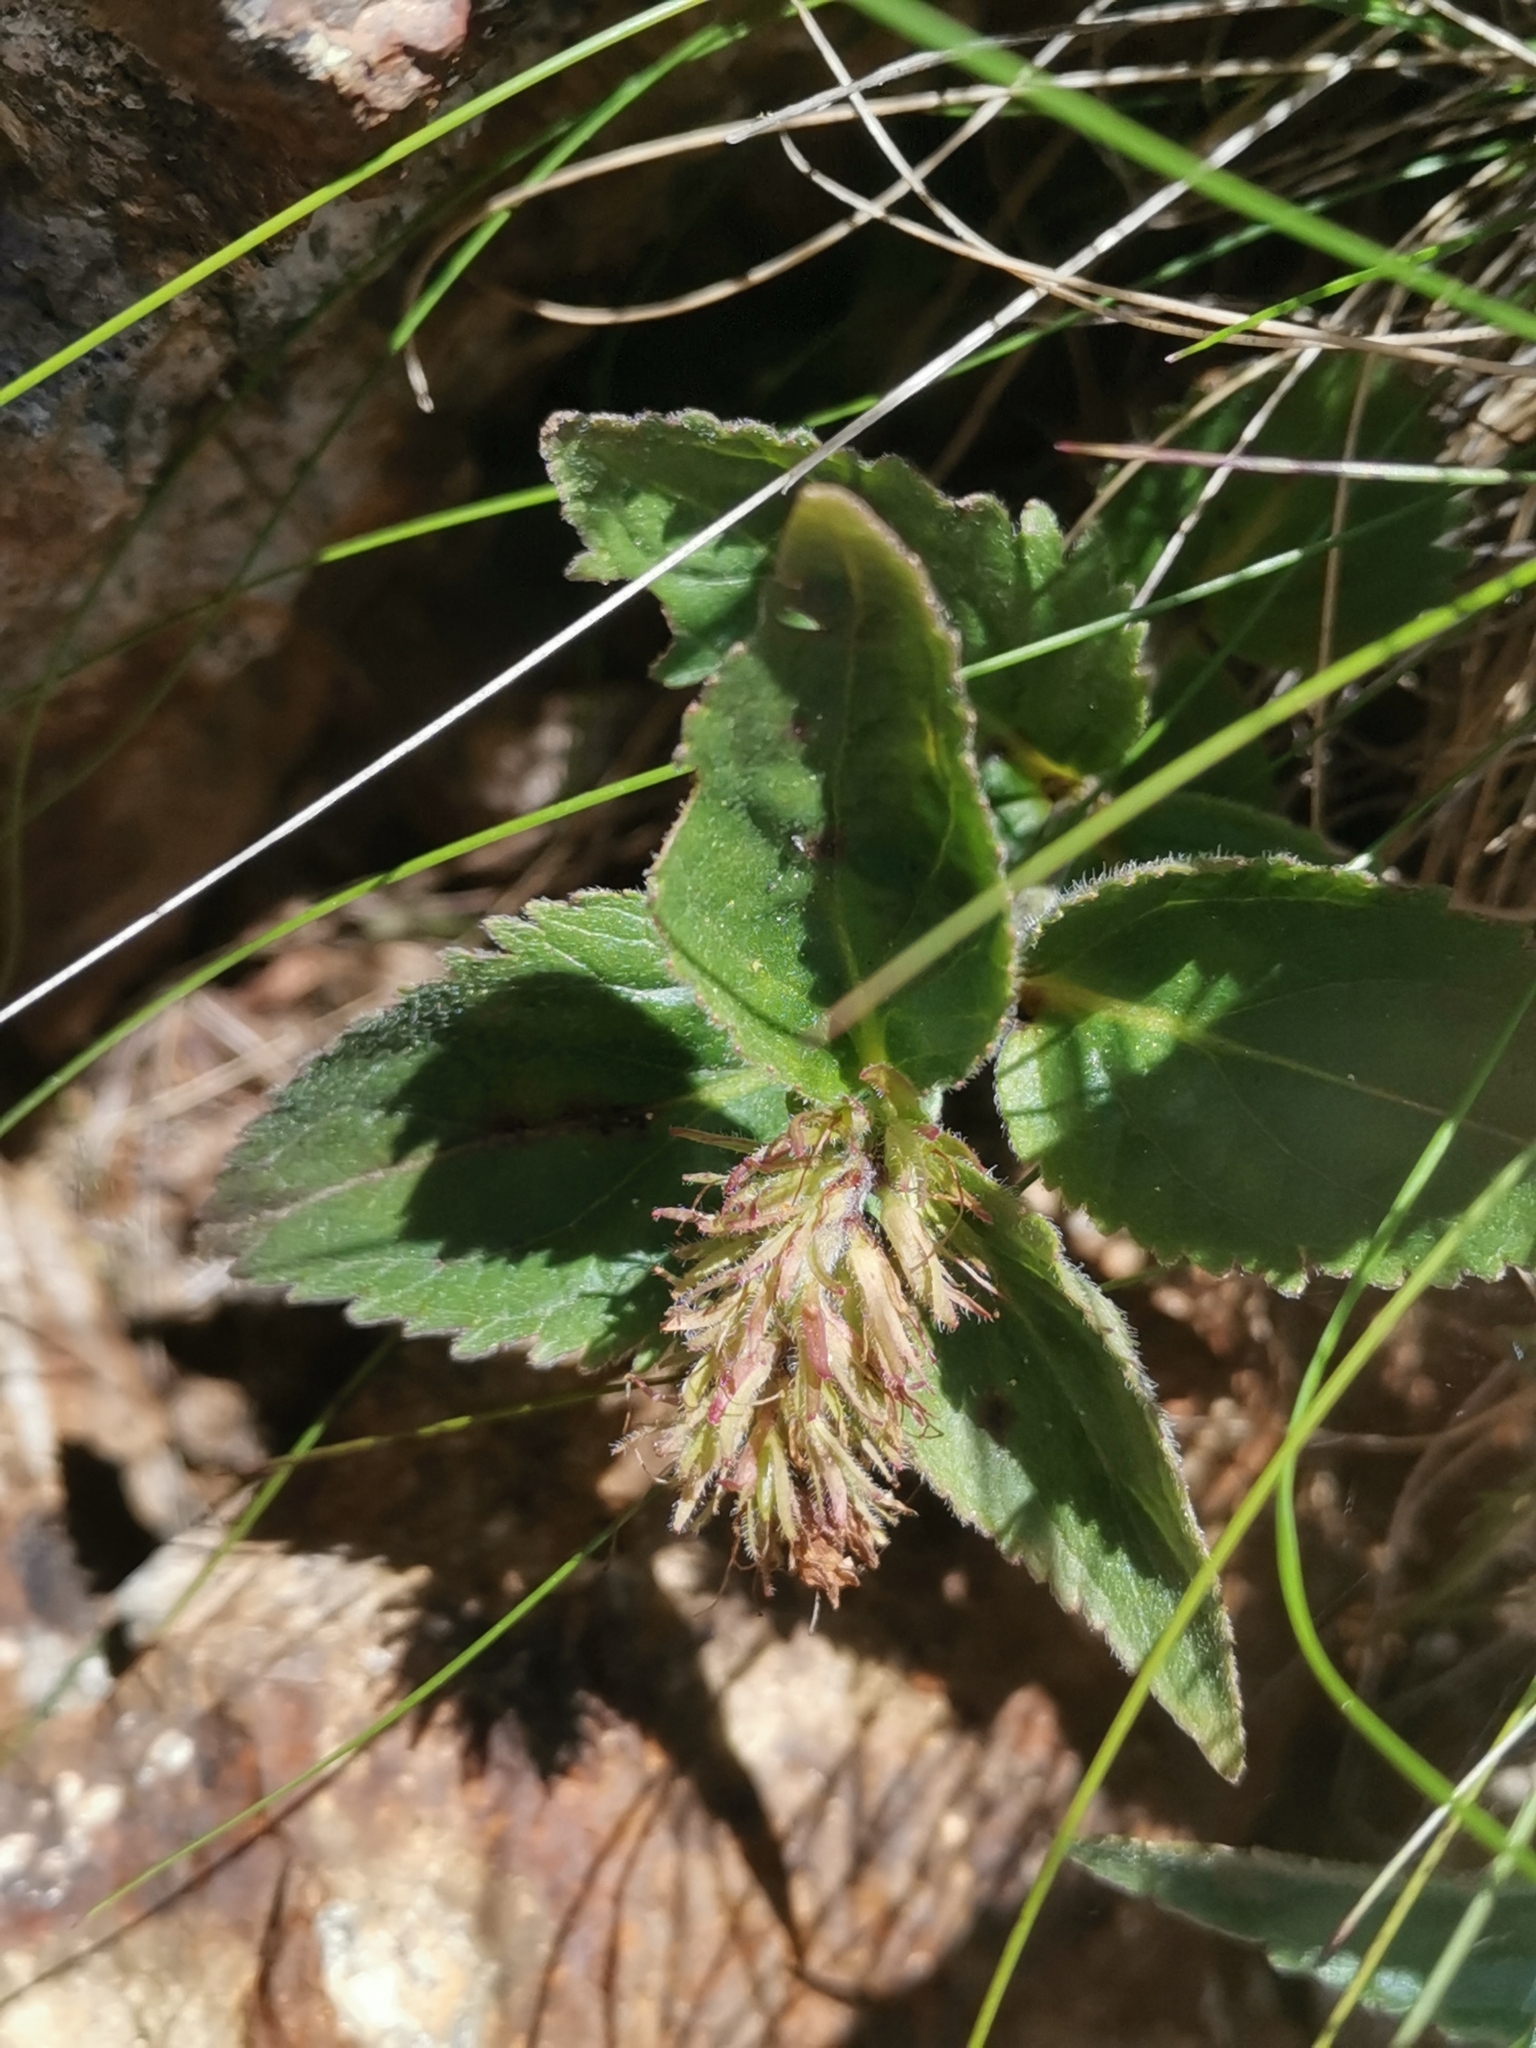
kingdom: Plantae
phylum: Tracheophyta
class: Magnoliopsida
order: Lamiales
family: Plantaginaceae
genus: Paederota
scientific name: Paederota lutea
